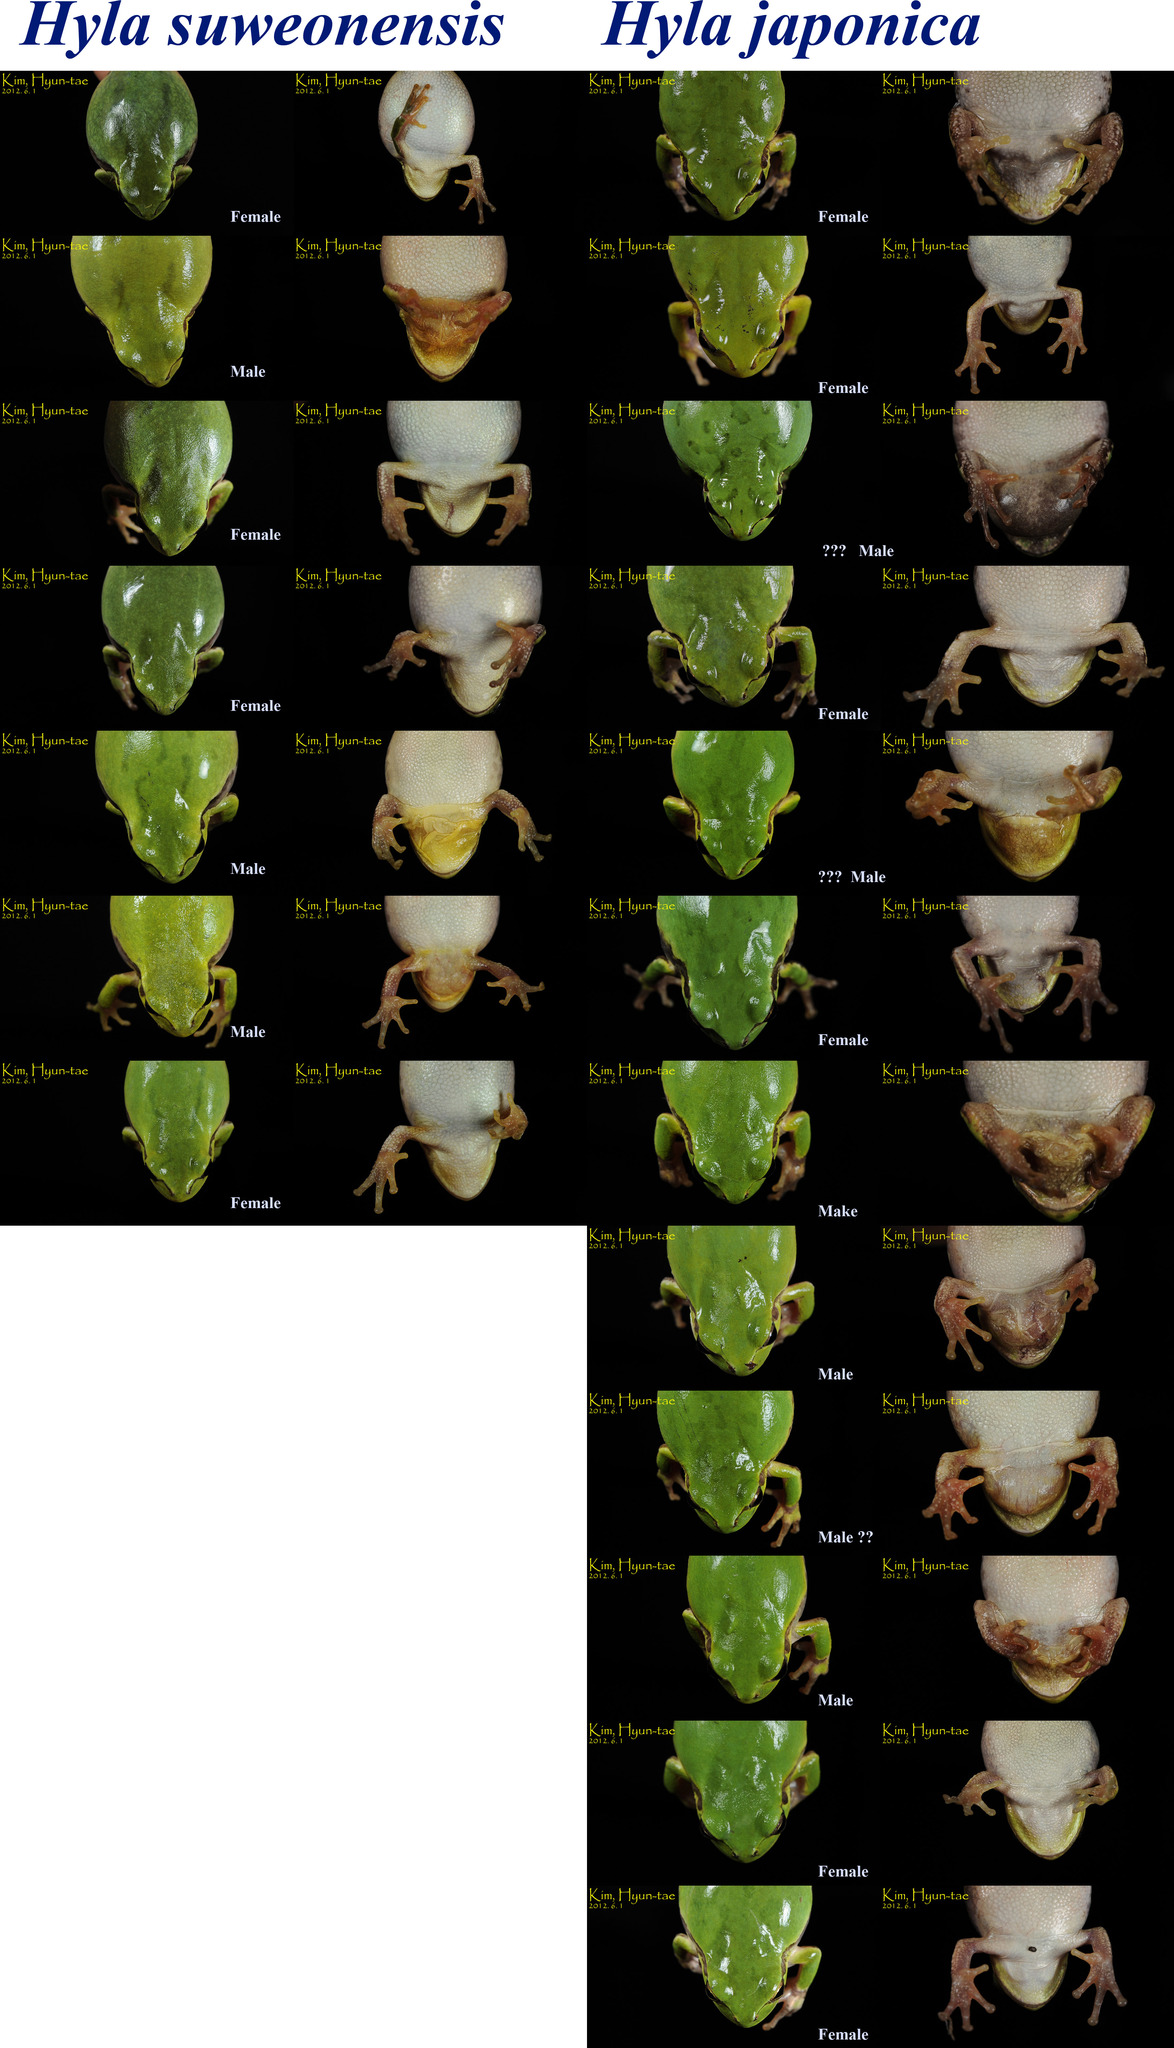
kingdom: Animalia
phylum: Chordata
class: Amphibia
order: Anura
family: Hylidae
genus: Dryophytes
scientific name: Dryophytes immaculatus
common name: North china treefrog
